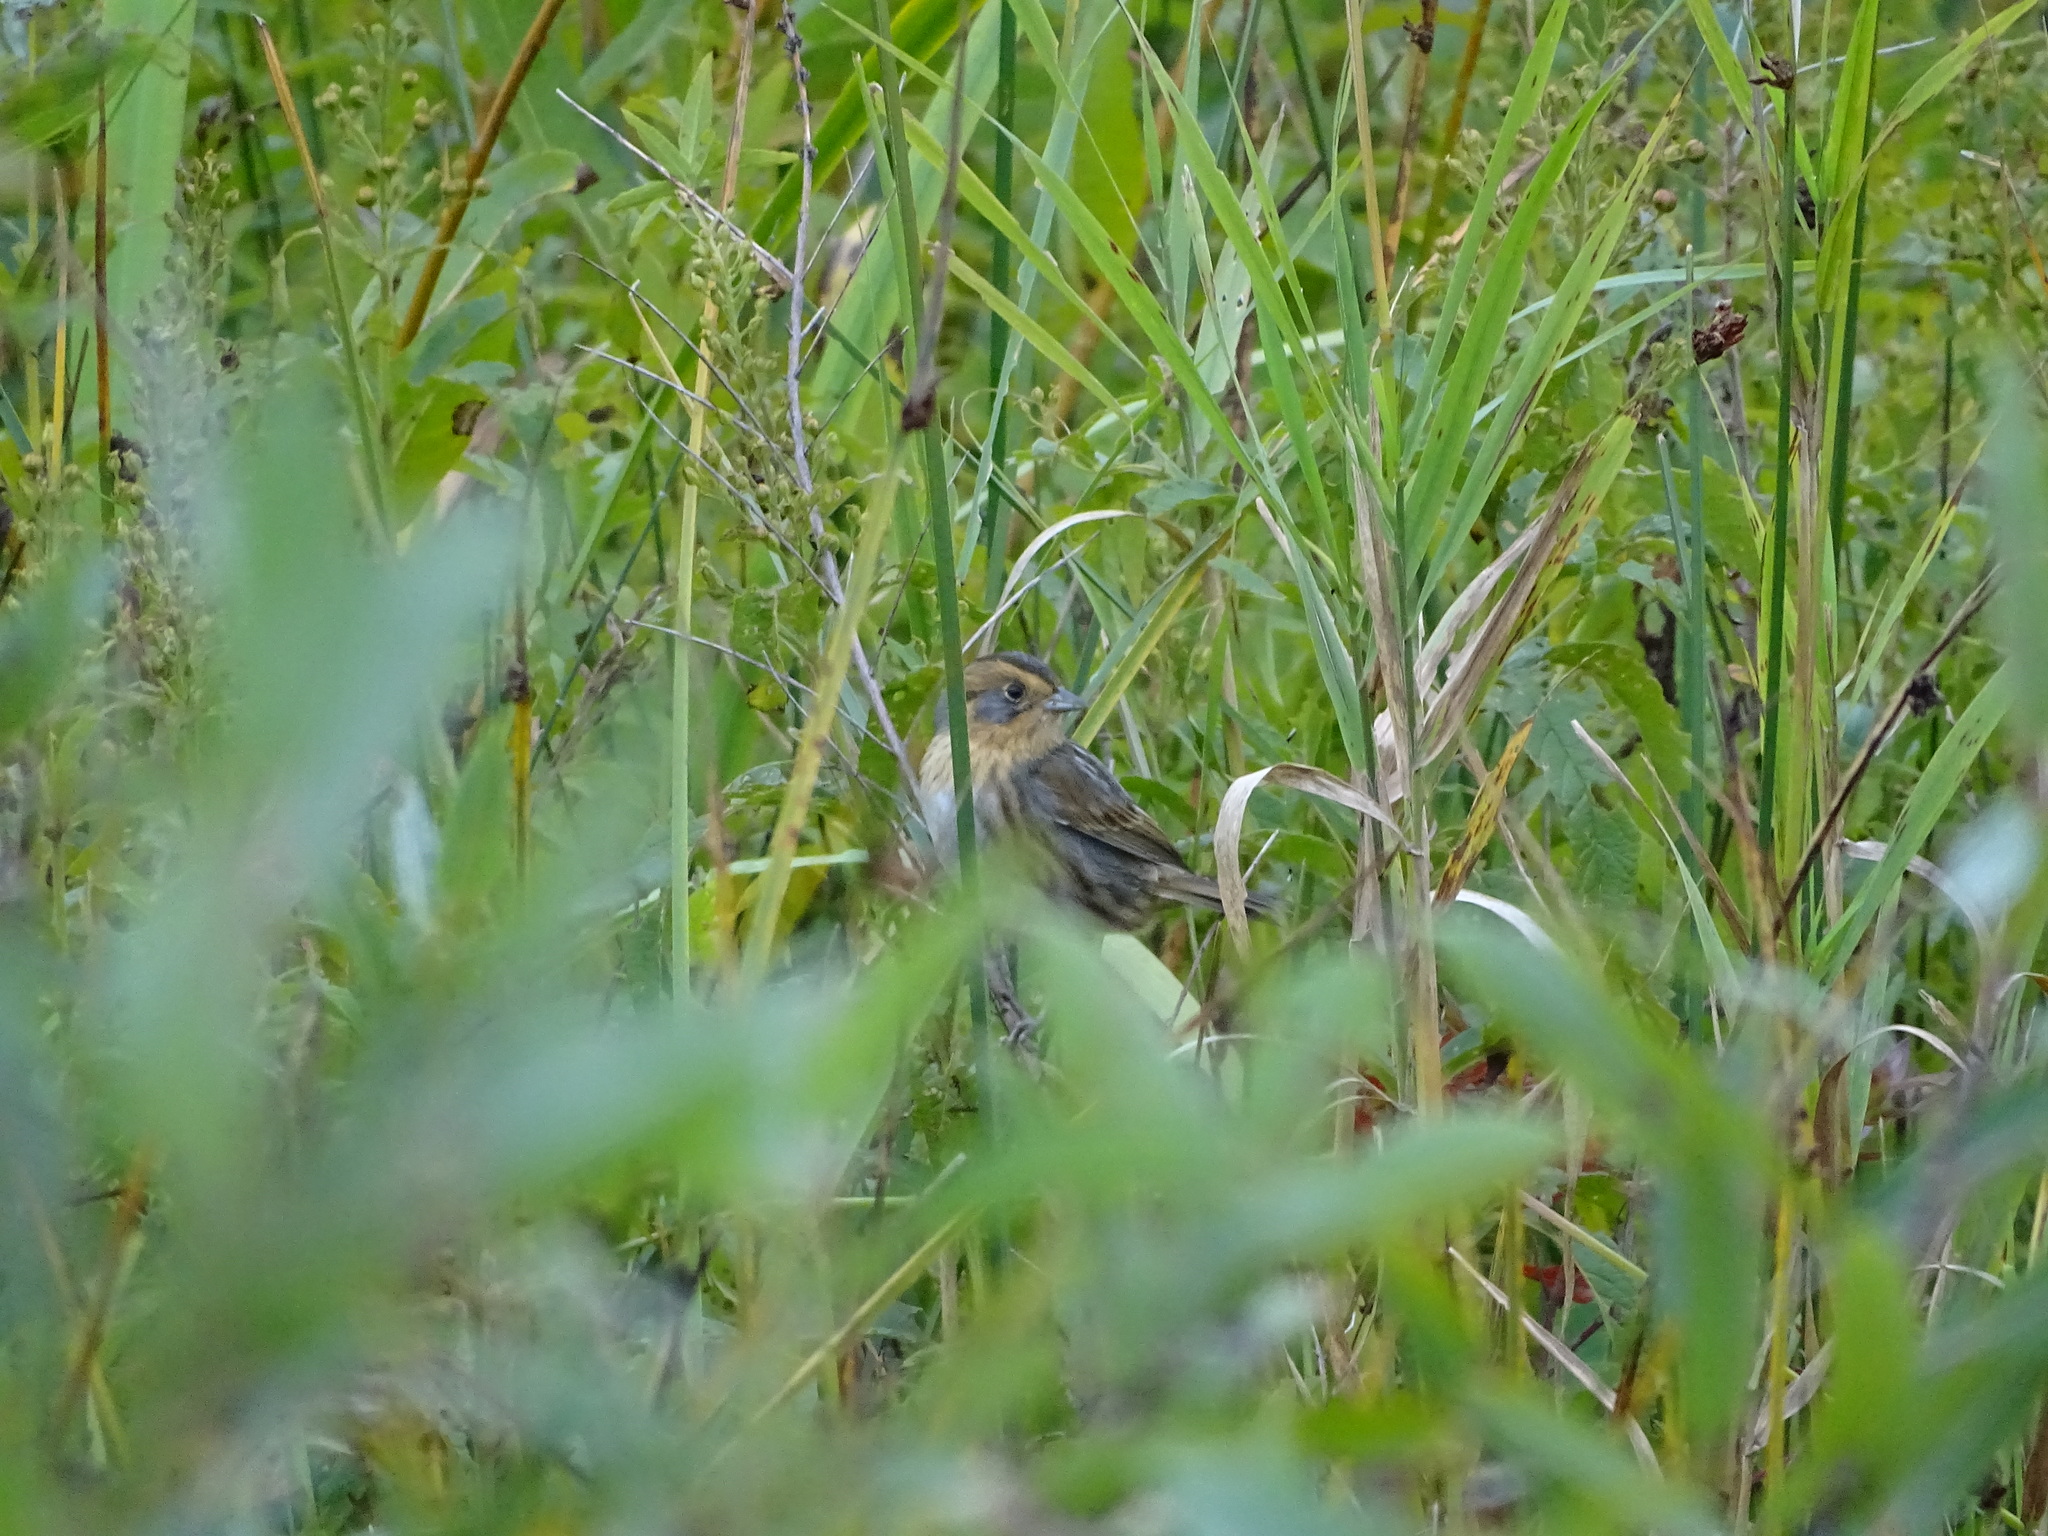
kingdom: Animalia
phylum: Chordata
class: Aves
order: Passeriformes
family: Passerellidae
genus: Ammospiza
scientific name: Ammospiza nelsoni
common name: Nelson's sparrow
